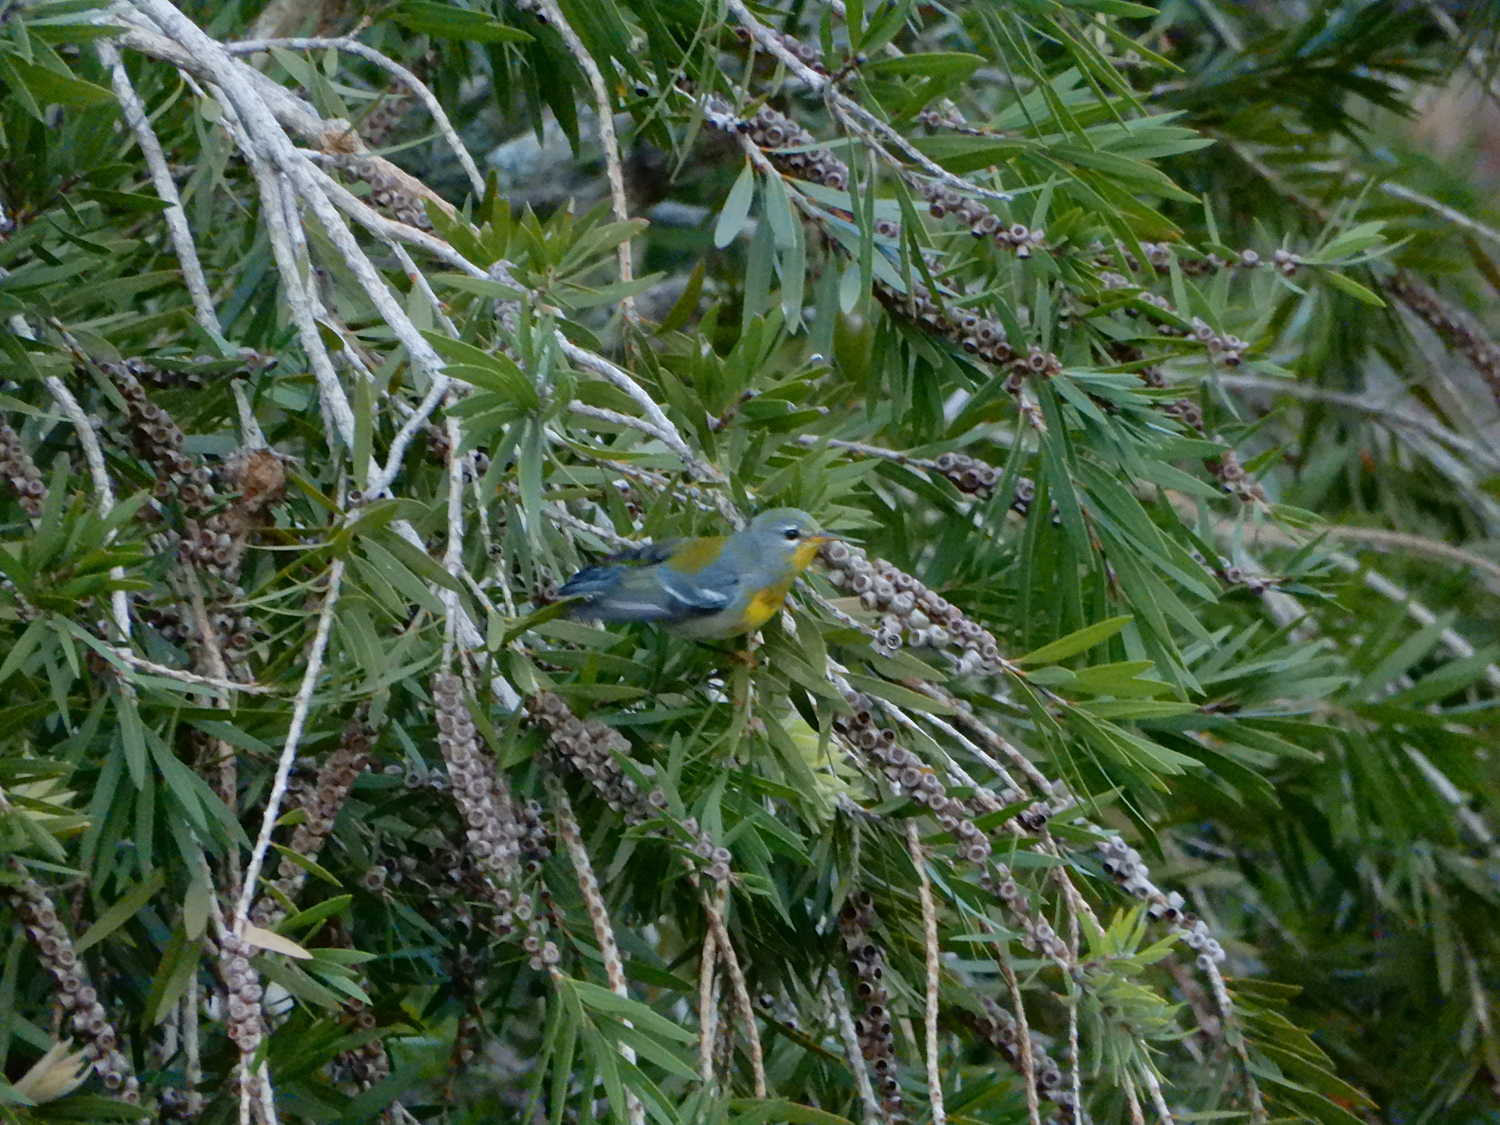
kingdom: Animalia
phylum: Chordata
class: Aves
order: Passeriformes
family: Parulidae
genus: Setophaga
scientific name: Setophaga americana
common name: Northern parula
